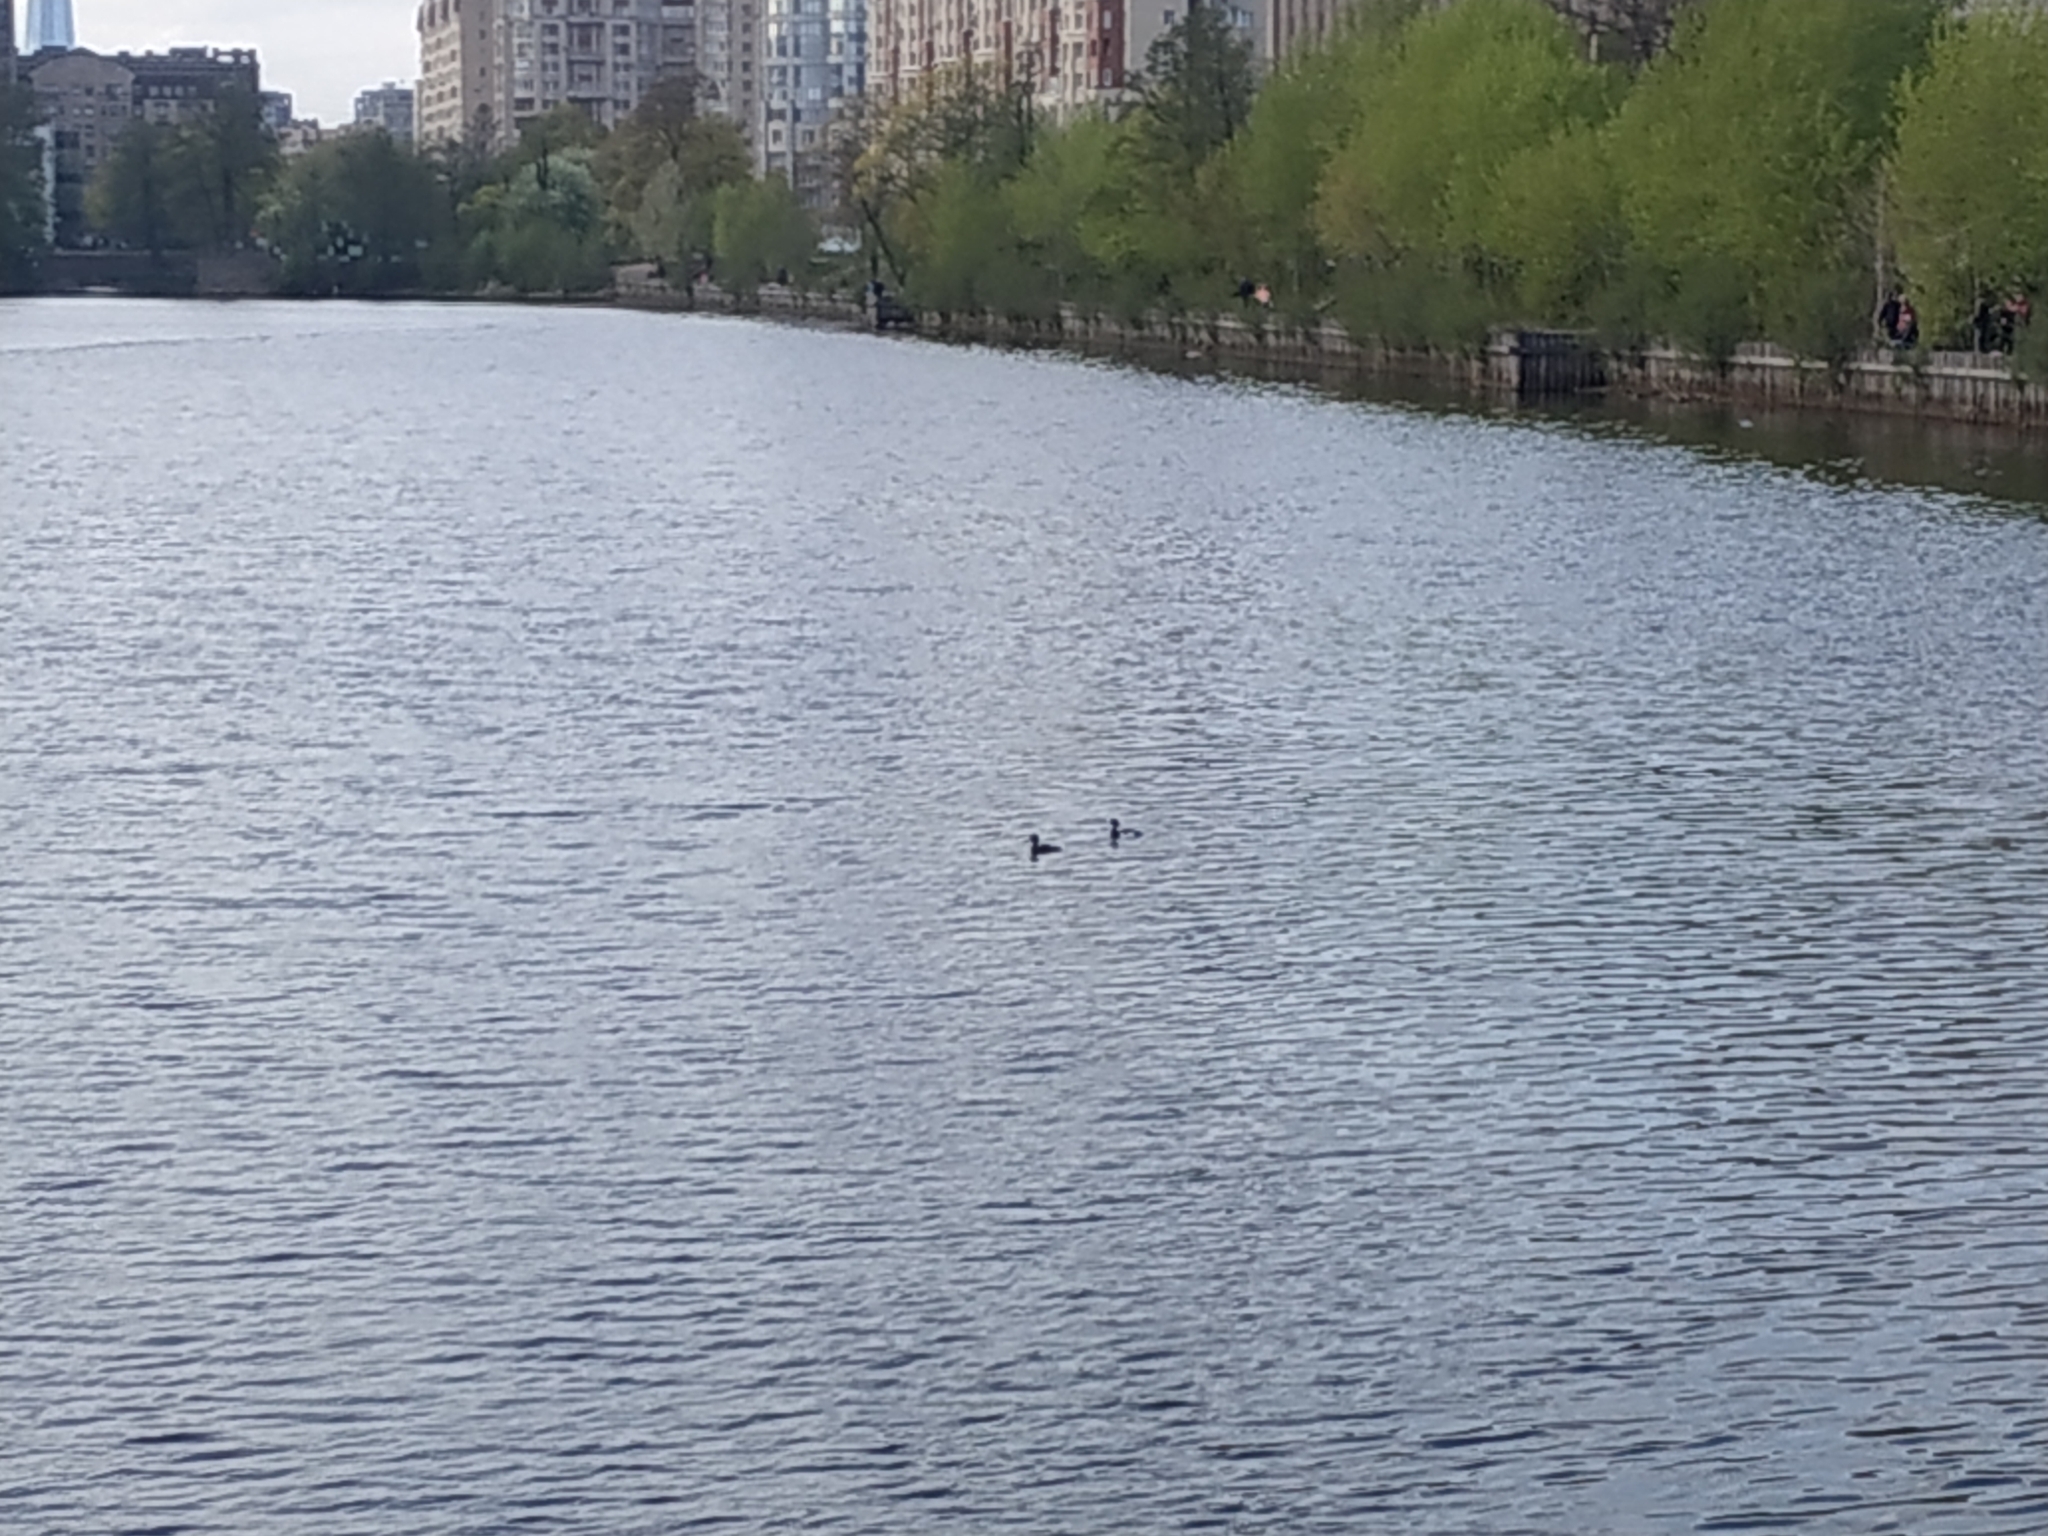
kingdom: Animalia
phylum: Chordata
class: Aves
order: Anseriformes
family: Anatidae
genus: Aythya
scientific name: Aythya fuligula
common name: Tufted duck
